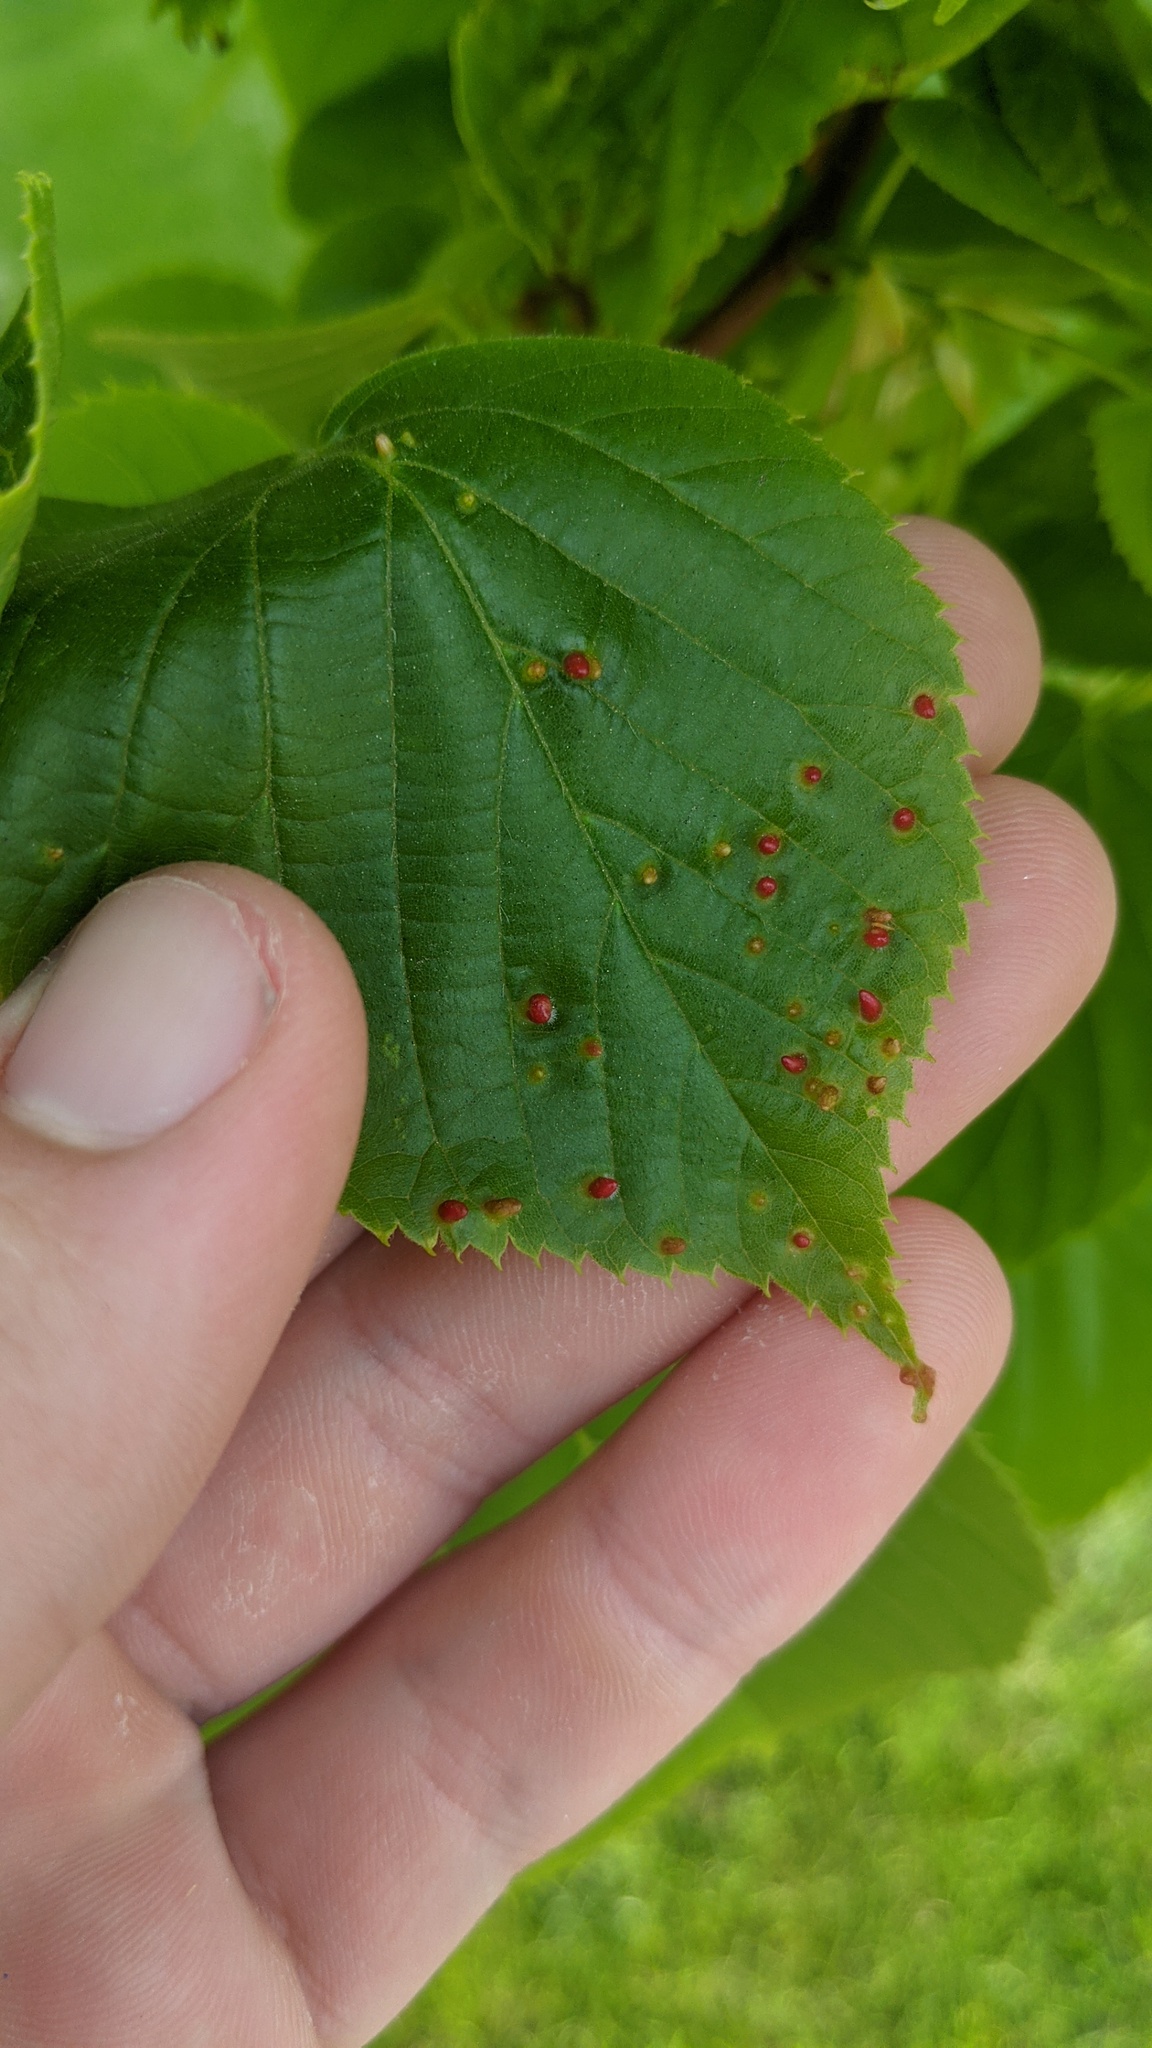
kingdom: Animalia
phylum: Arthropoda
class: Arachnida
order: Trombidiformes
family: Eriophyidae
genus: Eriophyes
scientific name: Eriophyes tiliae
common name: Red nail gall mite
